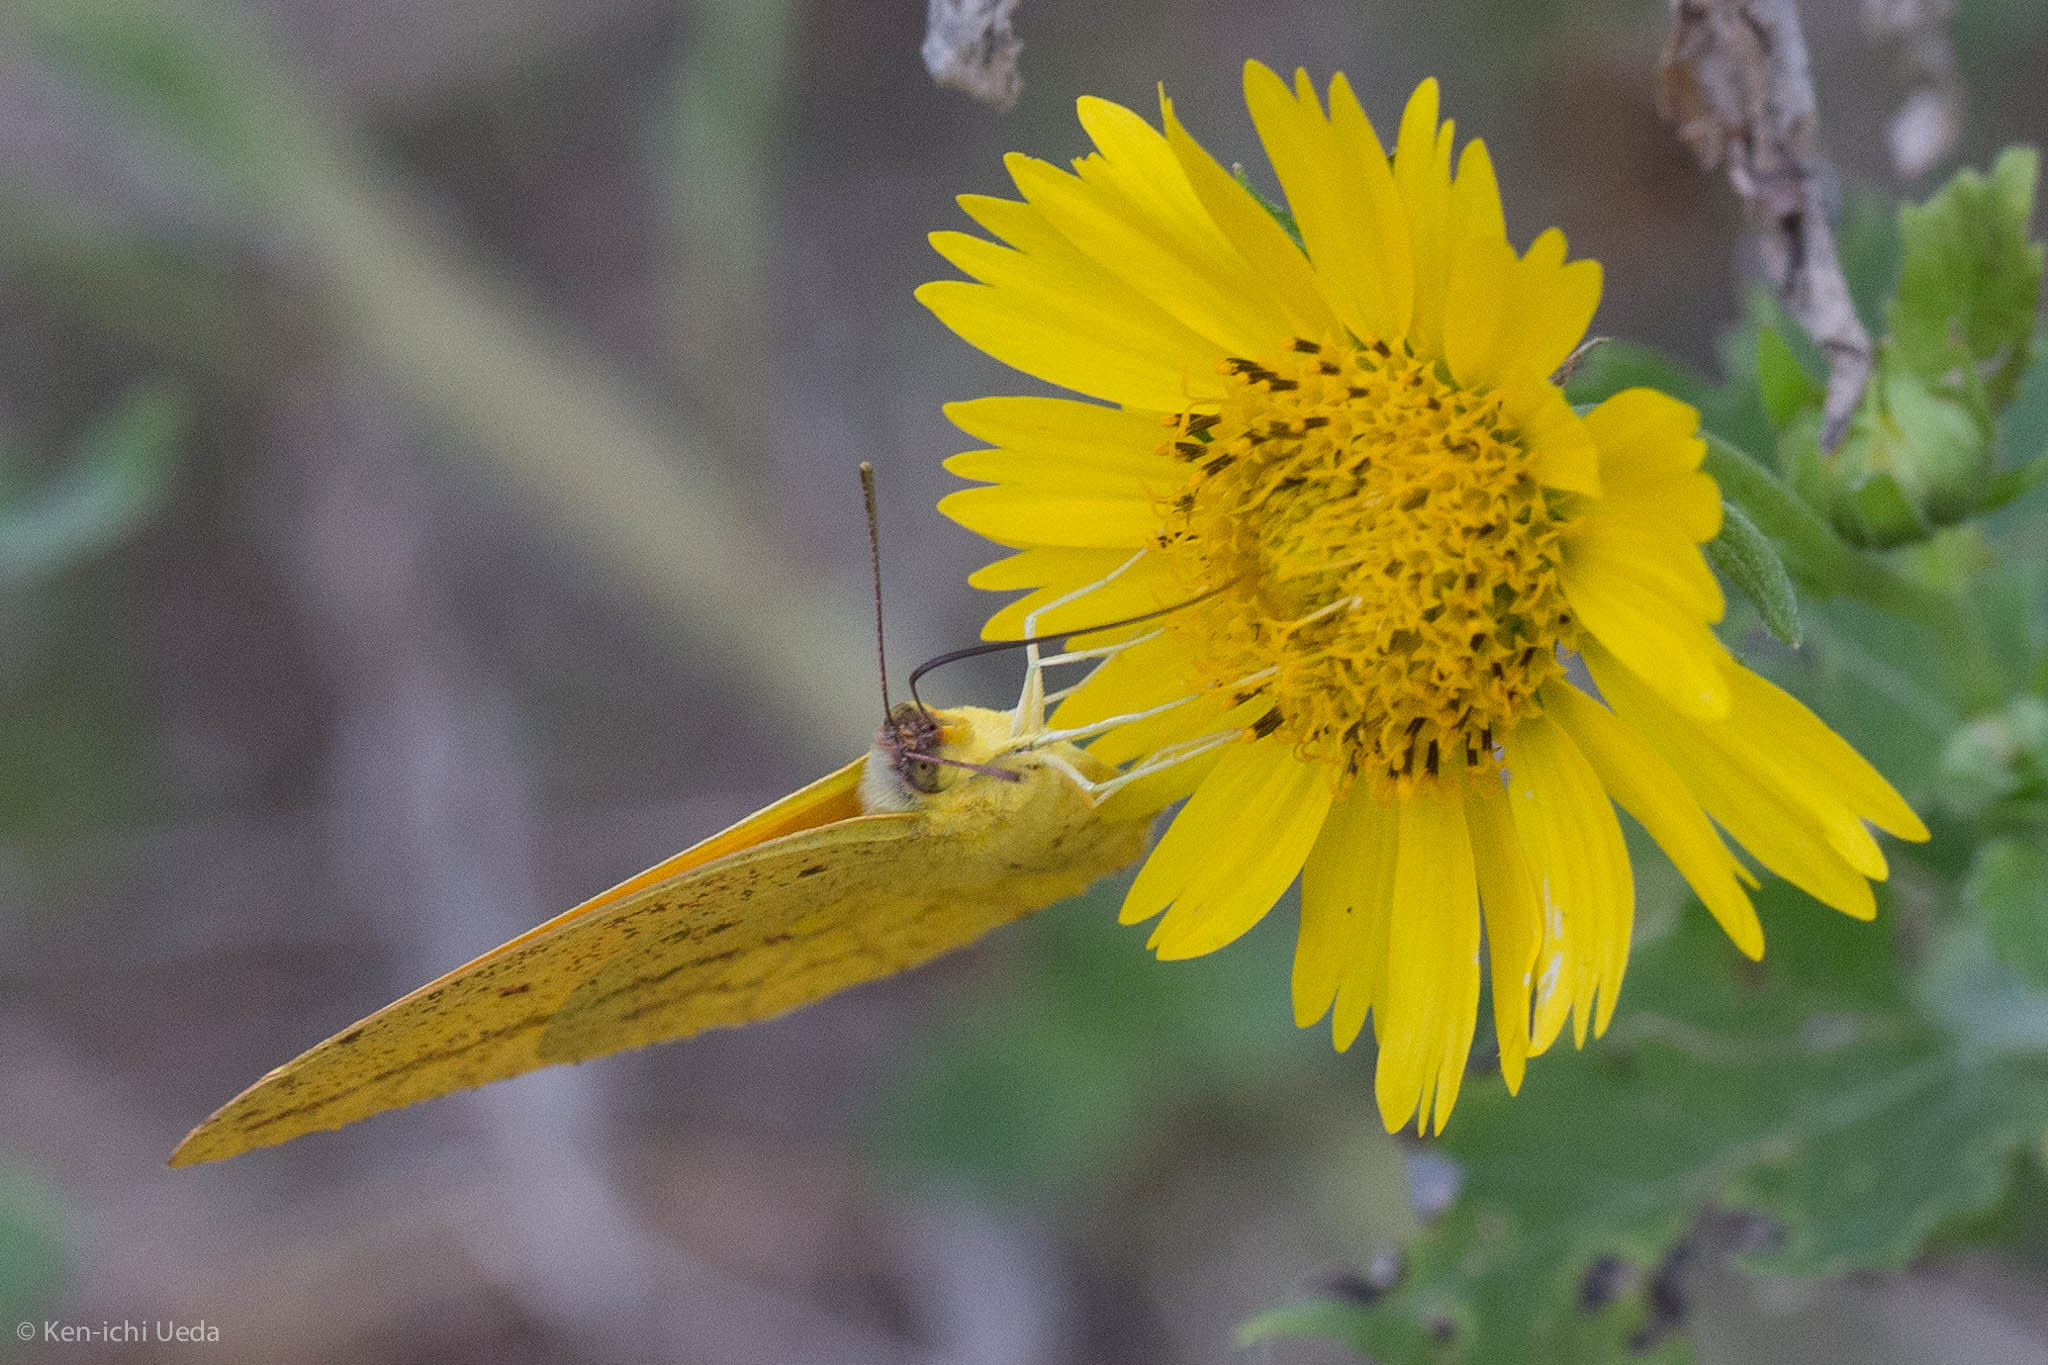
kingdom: Animalia
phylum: Arthropoda
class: Insecta
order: Lepidoptera
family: Pieridae
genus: Phoebis
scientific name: Phoebis agarithe
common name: Large orange sulphur
